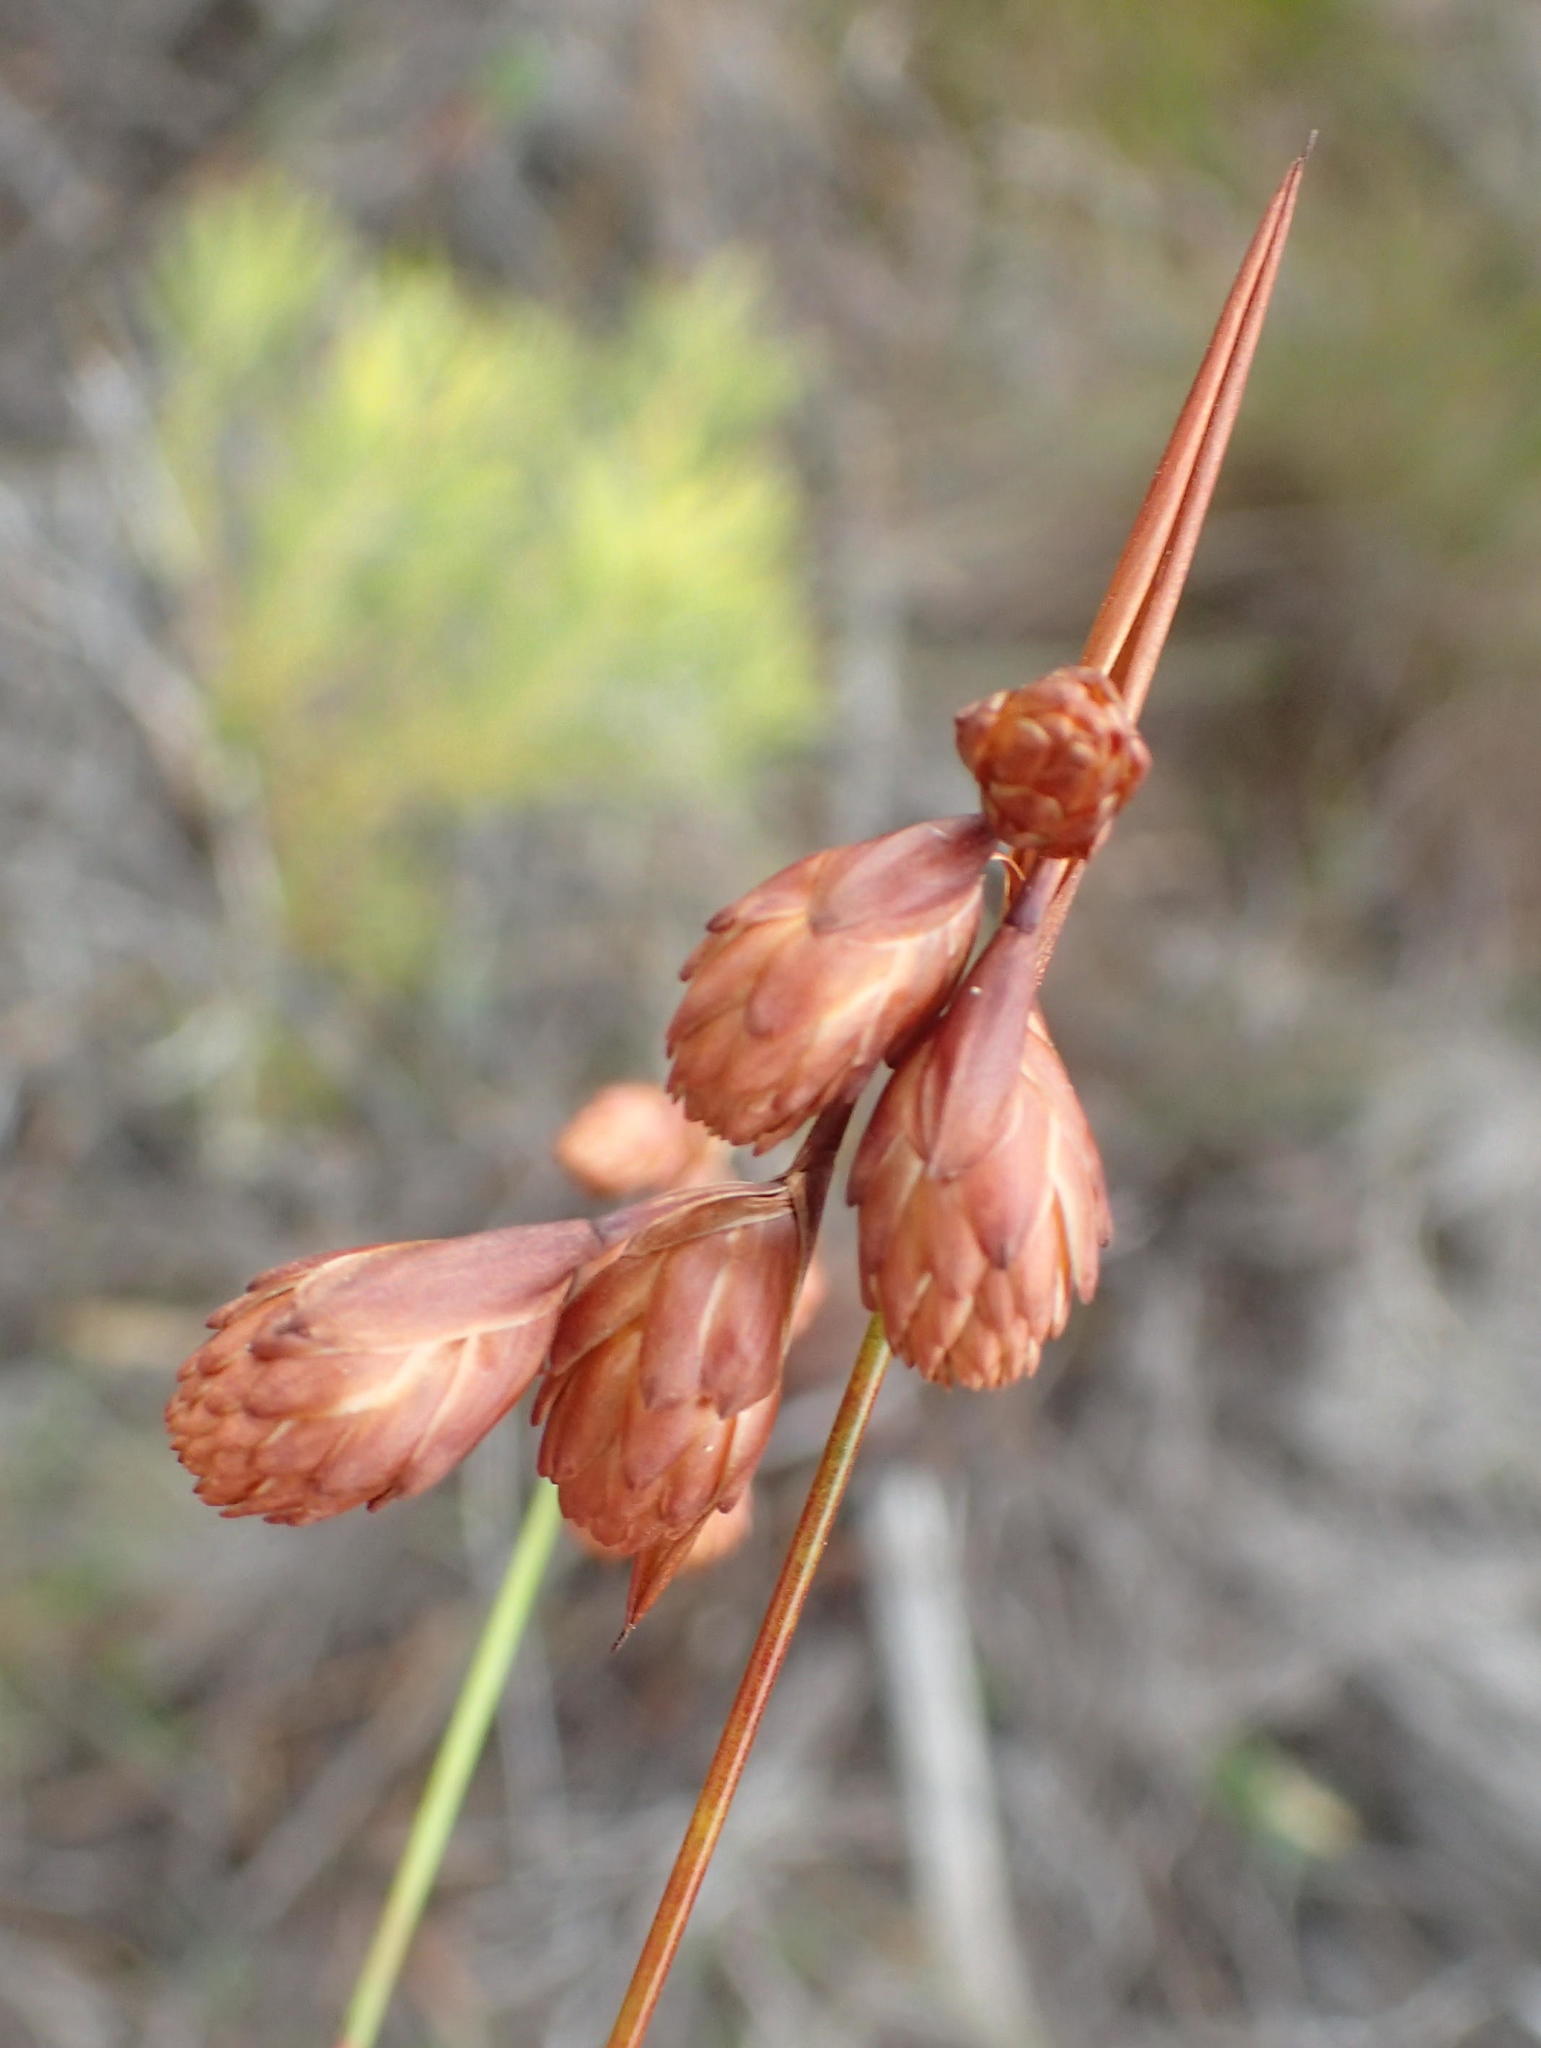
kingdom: Plantae
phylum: Tracheophyta
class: Liliopsida
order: Poales
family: Restionaceae
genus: Staberoha
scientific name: Staberoha cernua
